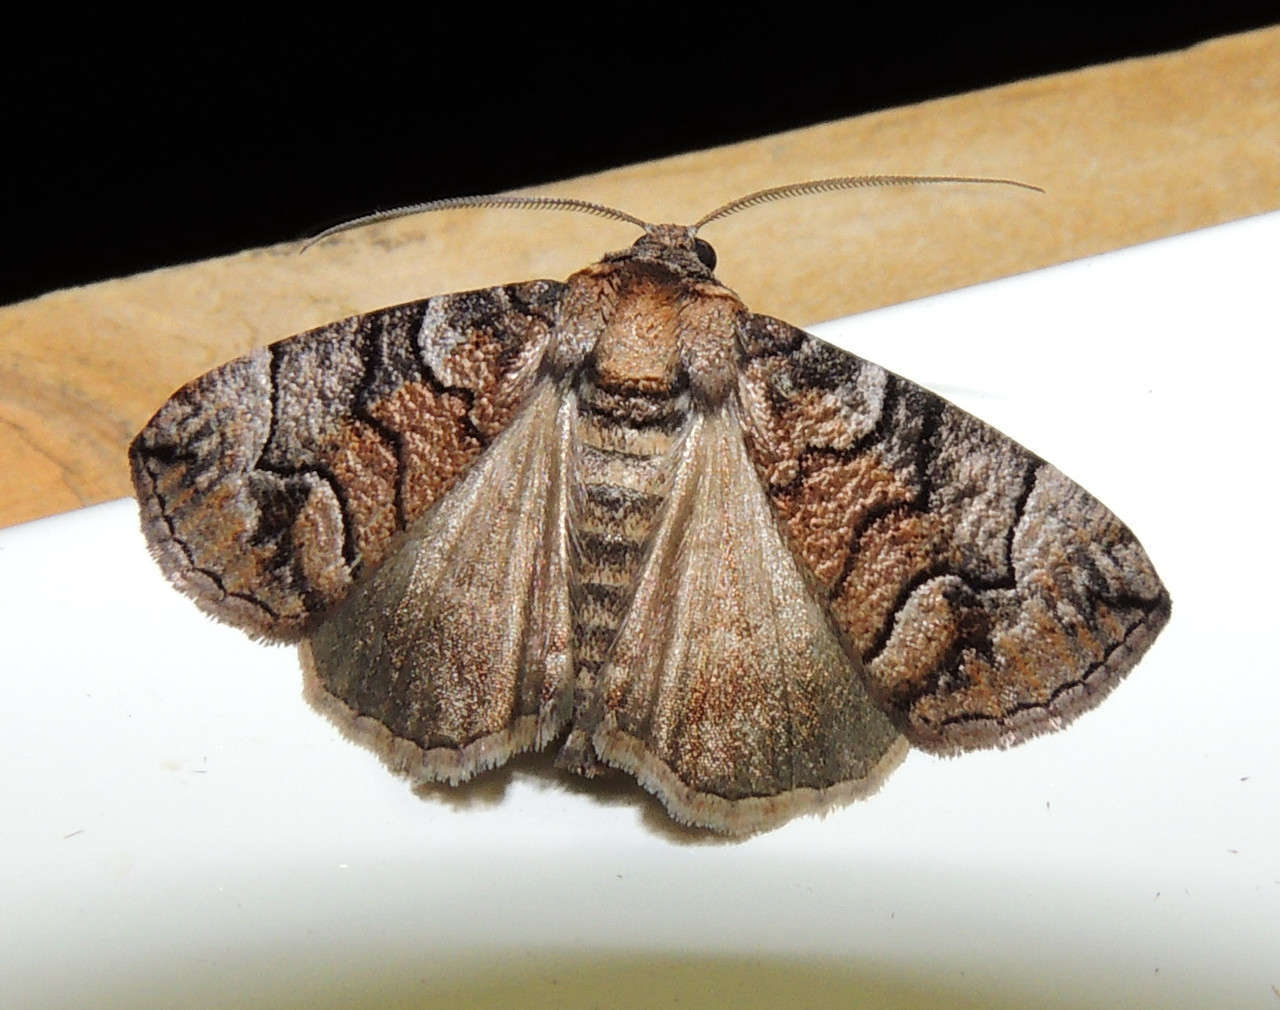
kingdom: Animalia
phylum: Arthropoda
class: Insecta
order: Lepidoptera
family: Geometridae
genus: Dysbatus
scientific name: Dysbatus
